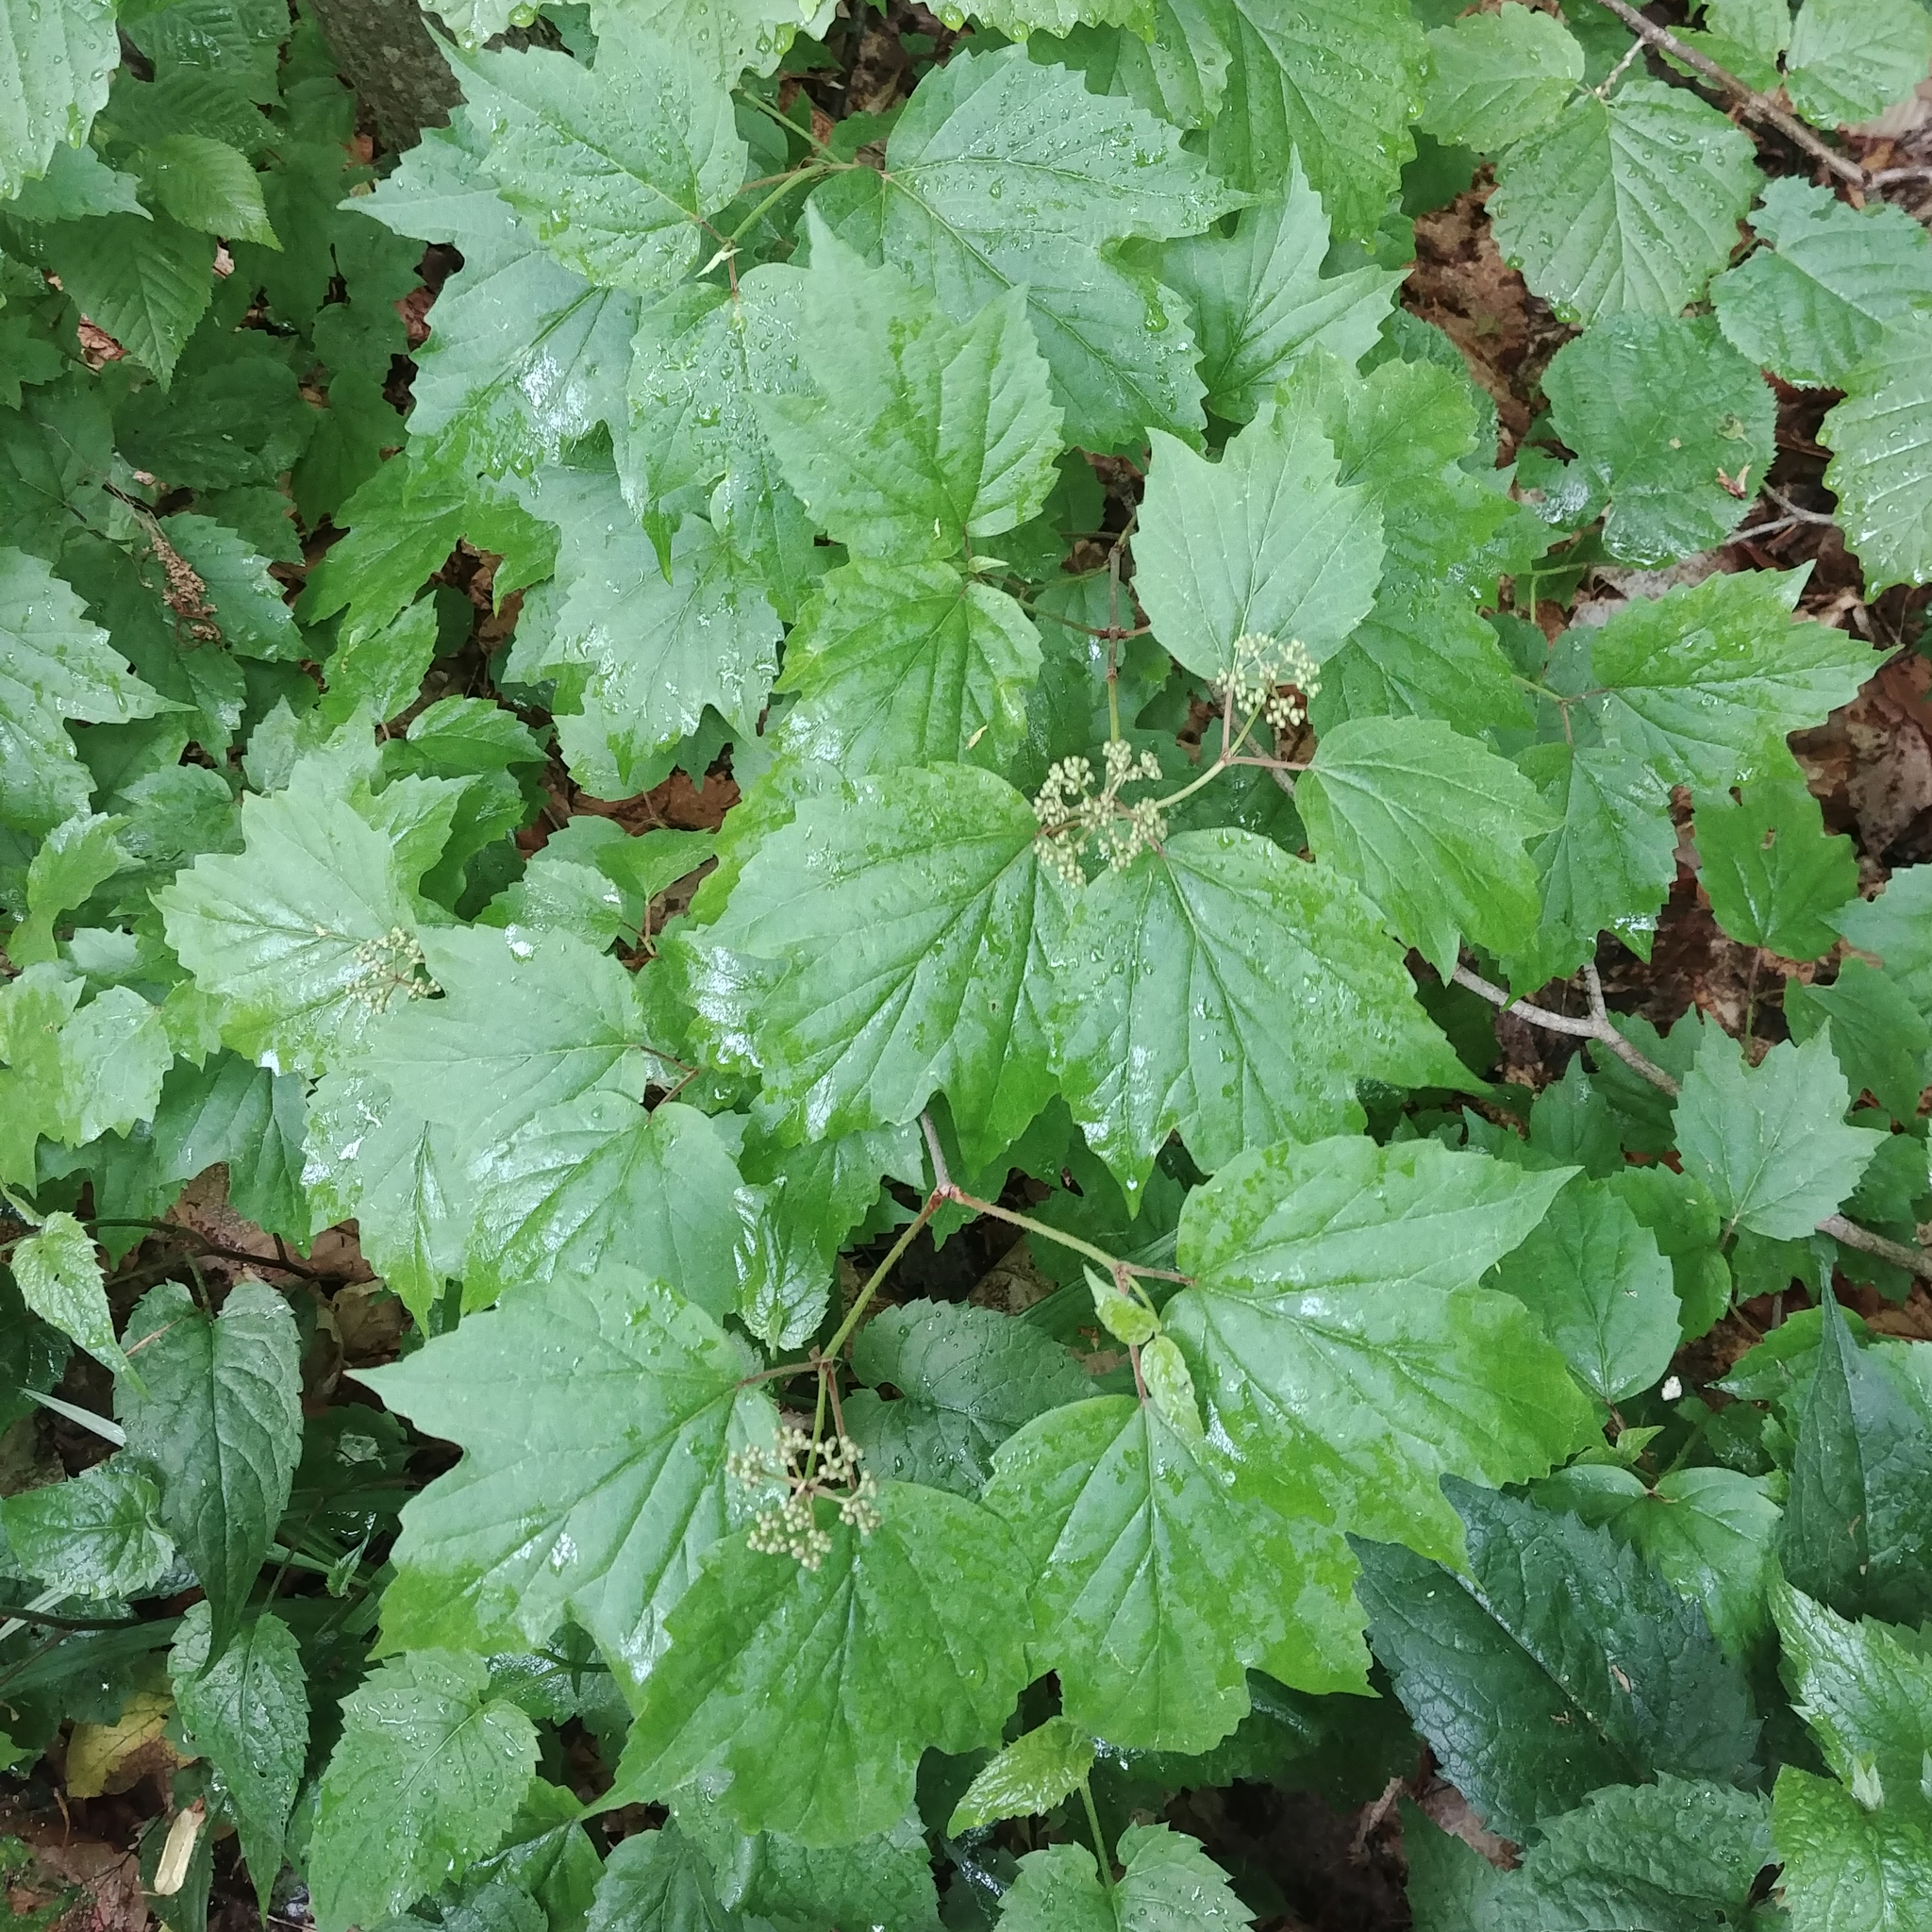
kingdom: Plantae
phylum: Tracheophyta
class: Magnoliopsida
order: Dipsacales
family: Viburnaceae
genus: Viburnum
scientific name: Viburnum acerifolium
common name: Dockmackie
